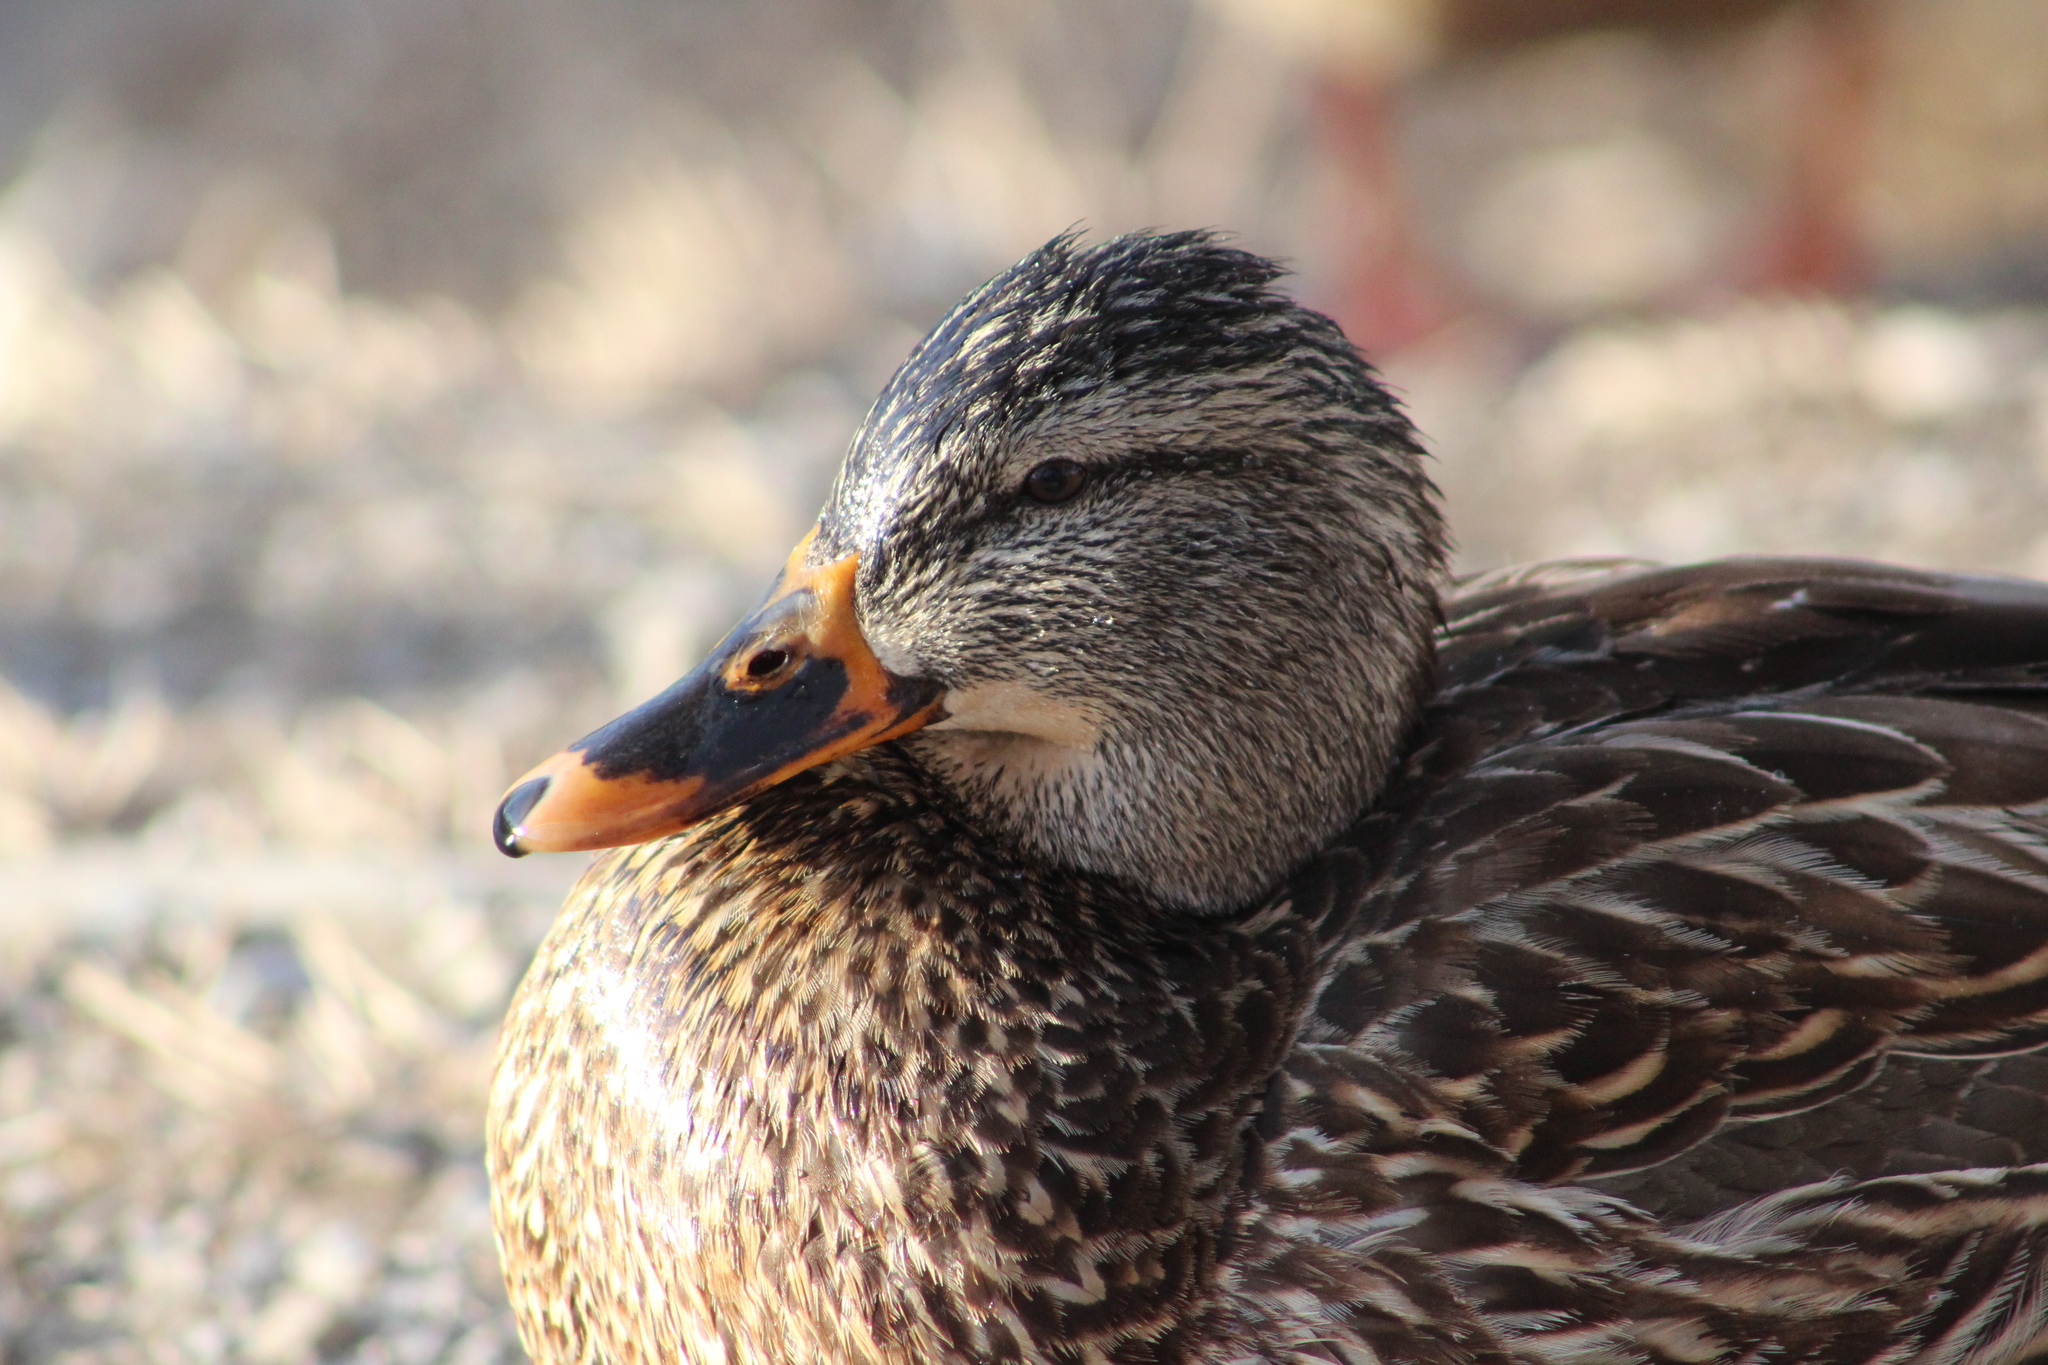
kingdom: Animalia
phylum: Chordata
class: Aves
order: Anseriformes
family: Anatidae
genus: Anas
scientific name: Anas platyrhynchos
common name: Mallard
